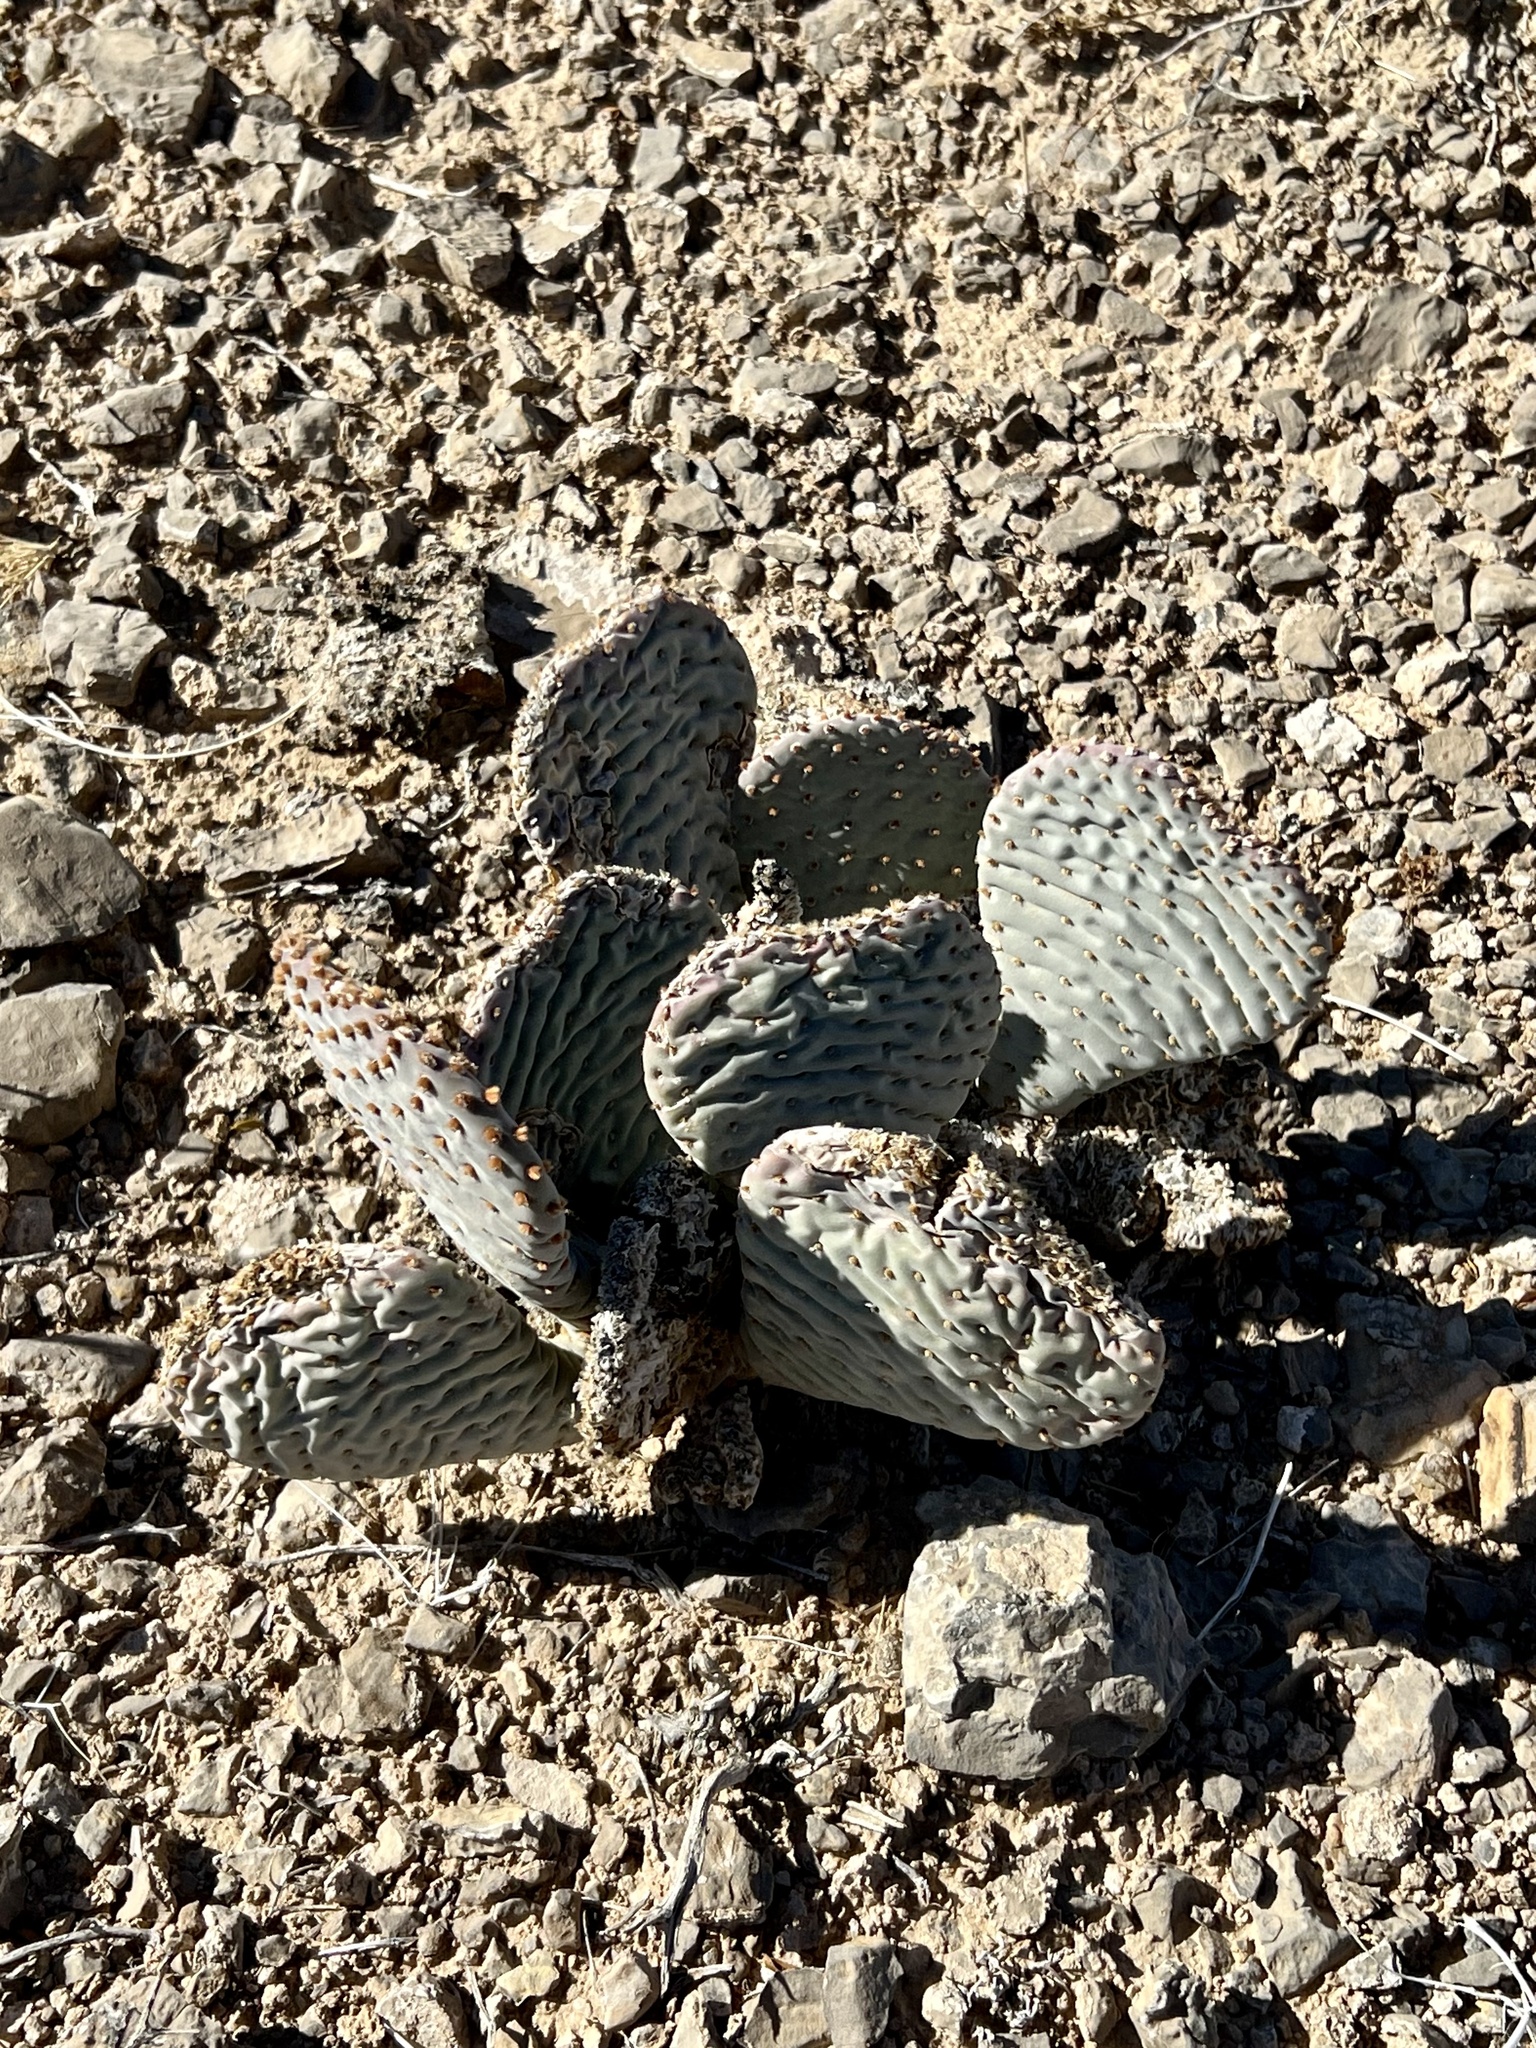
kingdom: Plantae
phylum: Tracheophyta
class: Magnoliopsida
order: Caryophyllales
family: Cactaceae
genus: Opuntia
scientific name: Opuntia basilaris
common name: Beavertail prickly-pear
